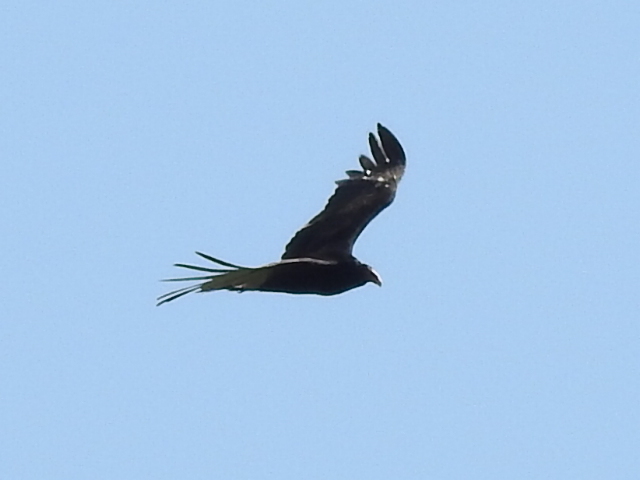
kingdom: Animalia
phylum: Chordata
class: Aves
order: Accipitriformes
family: Cathartidae
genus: Cathartes
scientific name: Cathartes aura
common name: Turkey vulture
